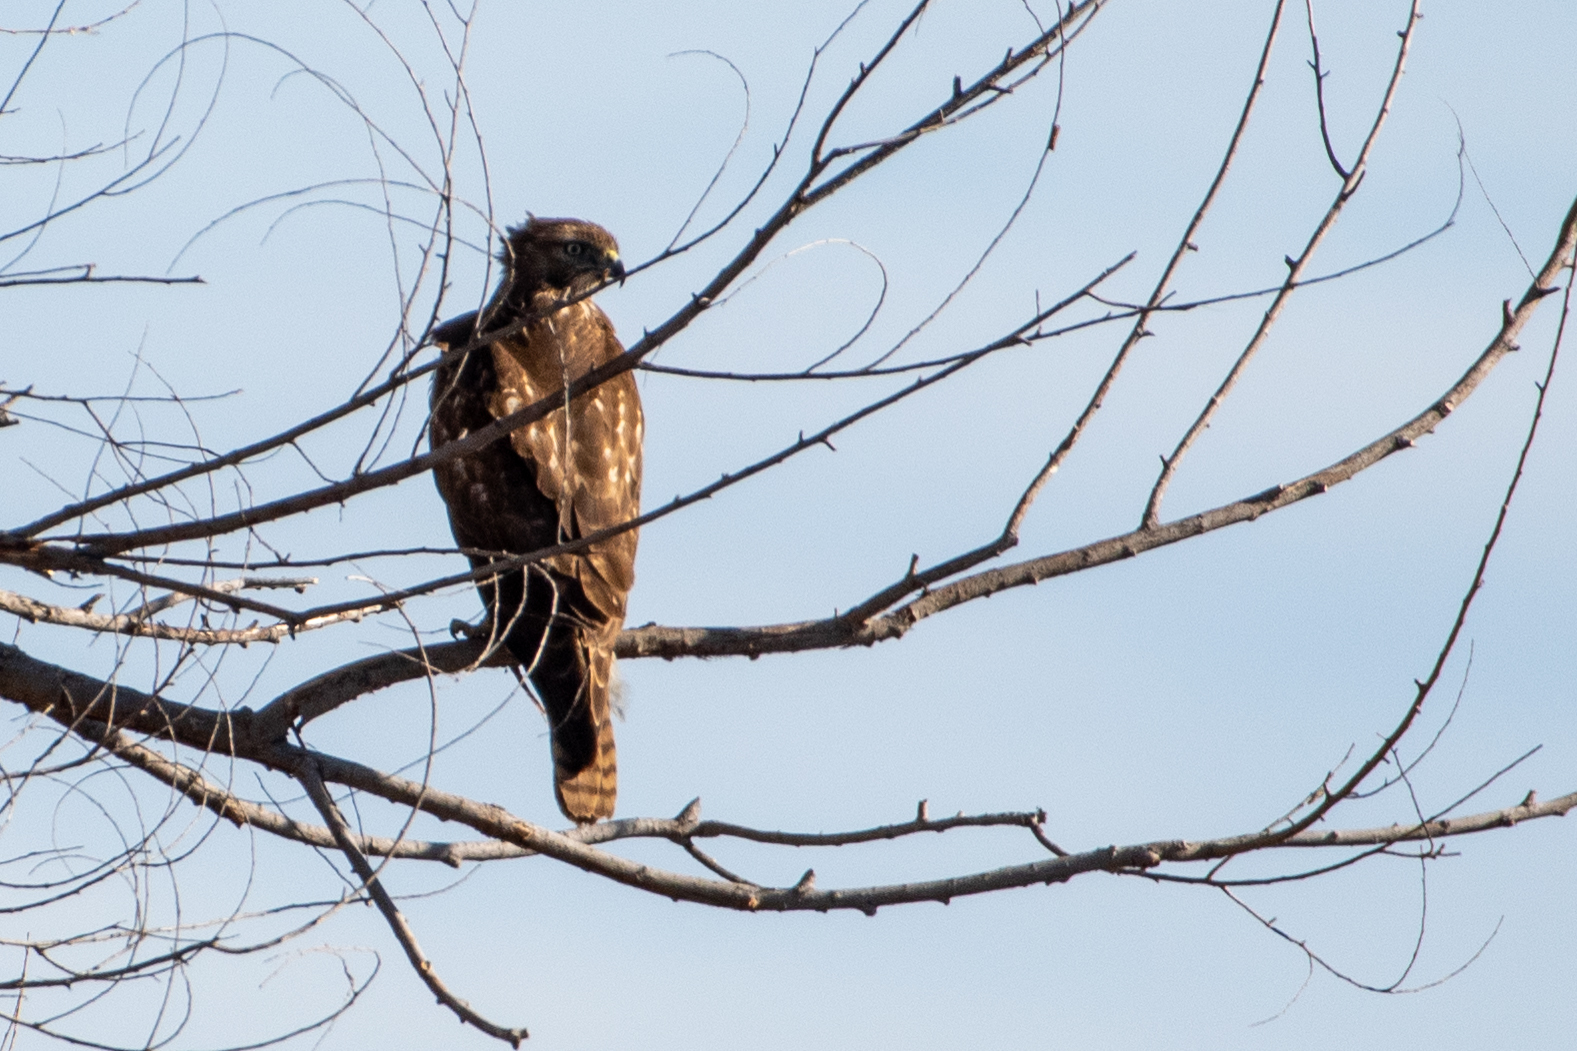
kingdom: Animalia
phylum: Chordata
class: Aves
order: Accipitriformes
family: Accipitridae
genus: Buteo
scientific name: Buteo jamaicensis
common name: Red-tailed hawk
